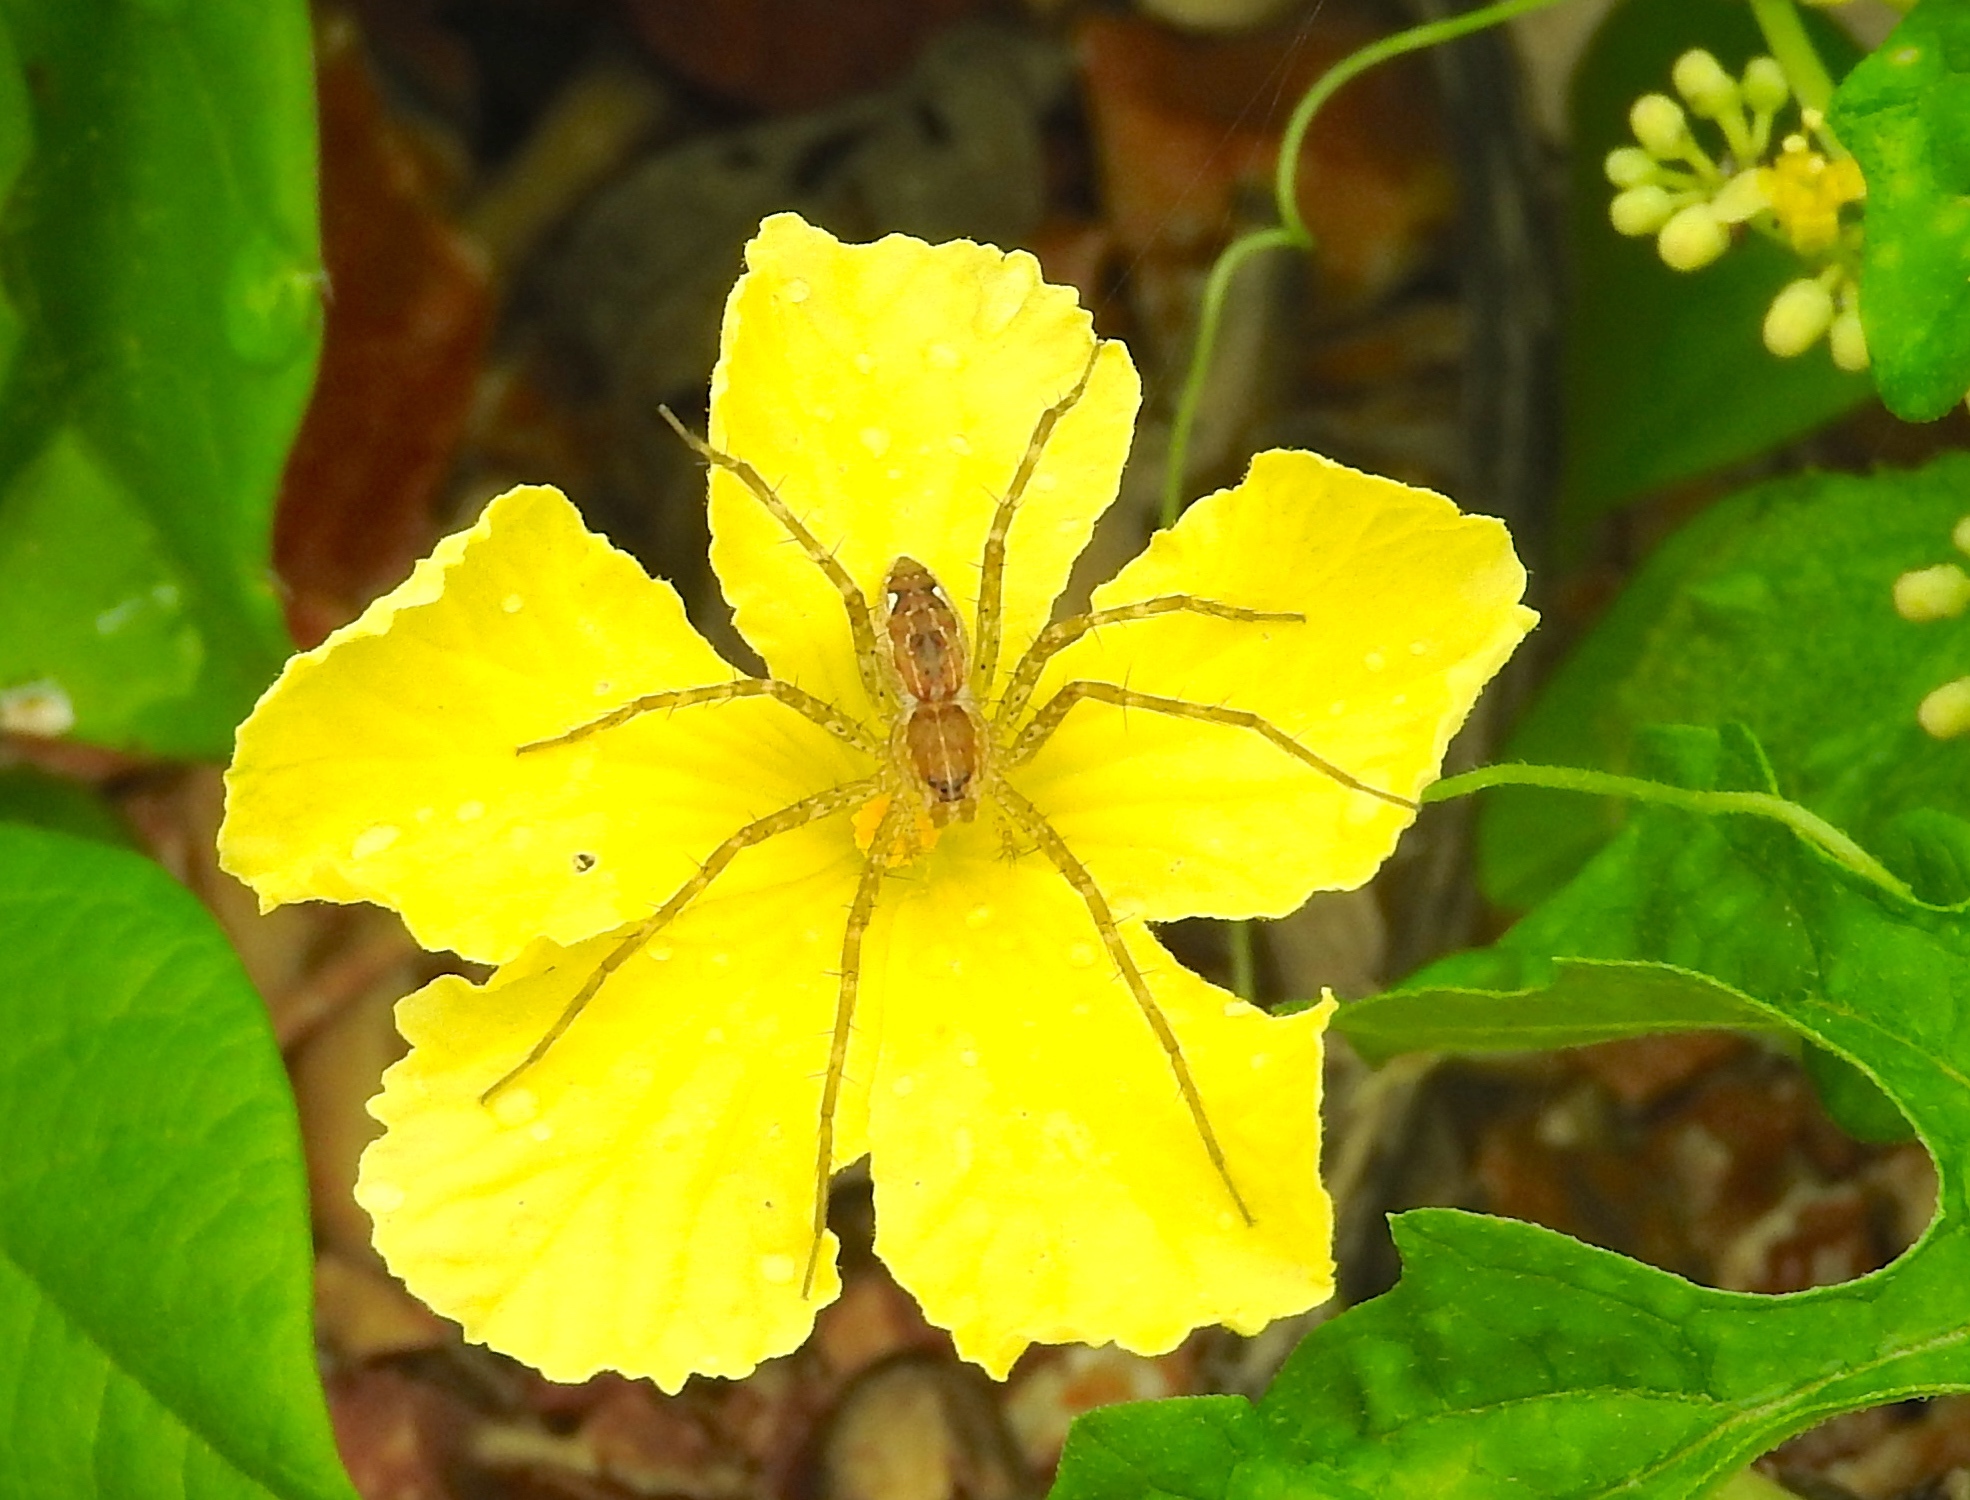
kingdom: Animalia
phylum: Arthropoda
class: Arachnida
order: Araneae
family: Pisauridae
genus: Tinus
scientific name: Tinus
